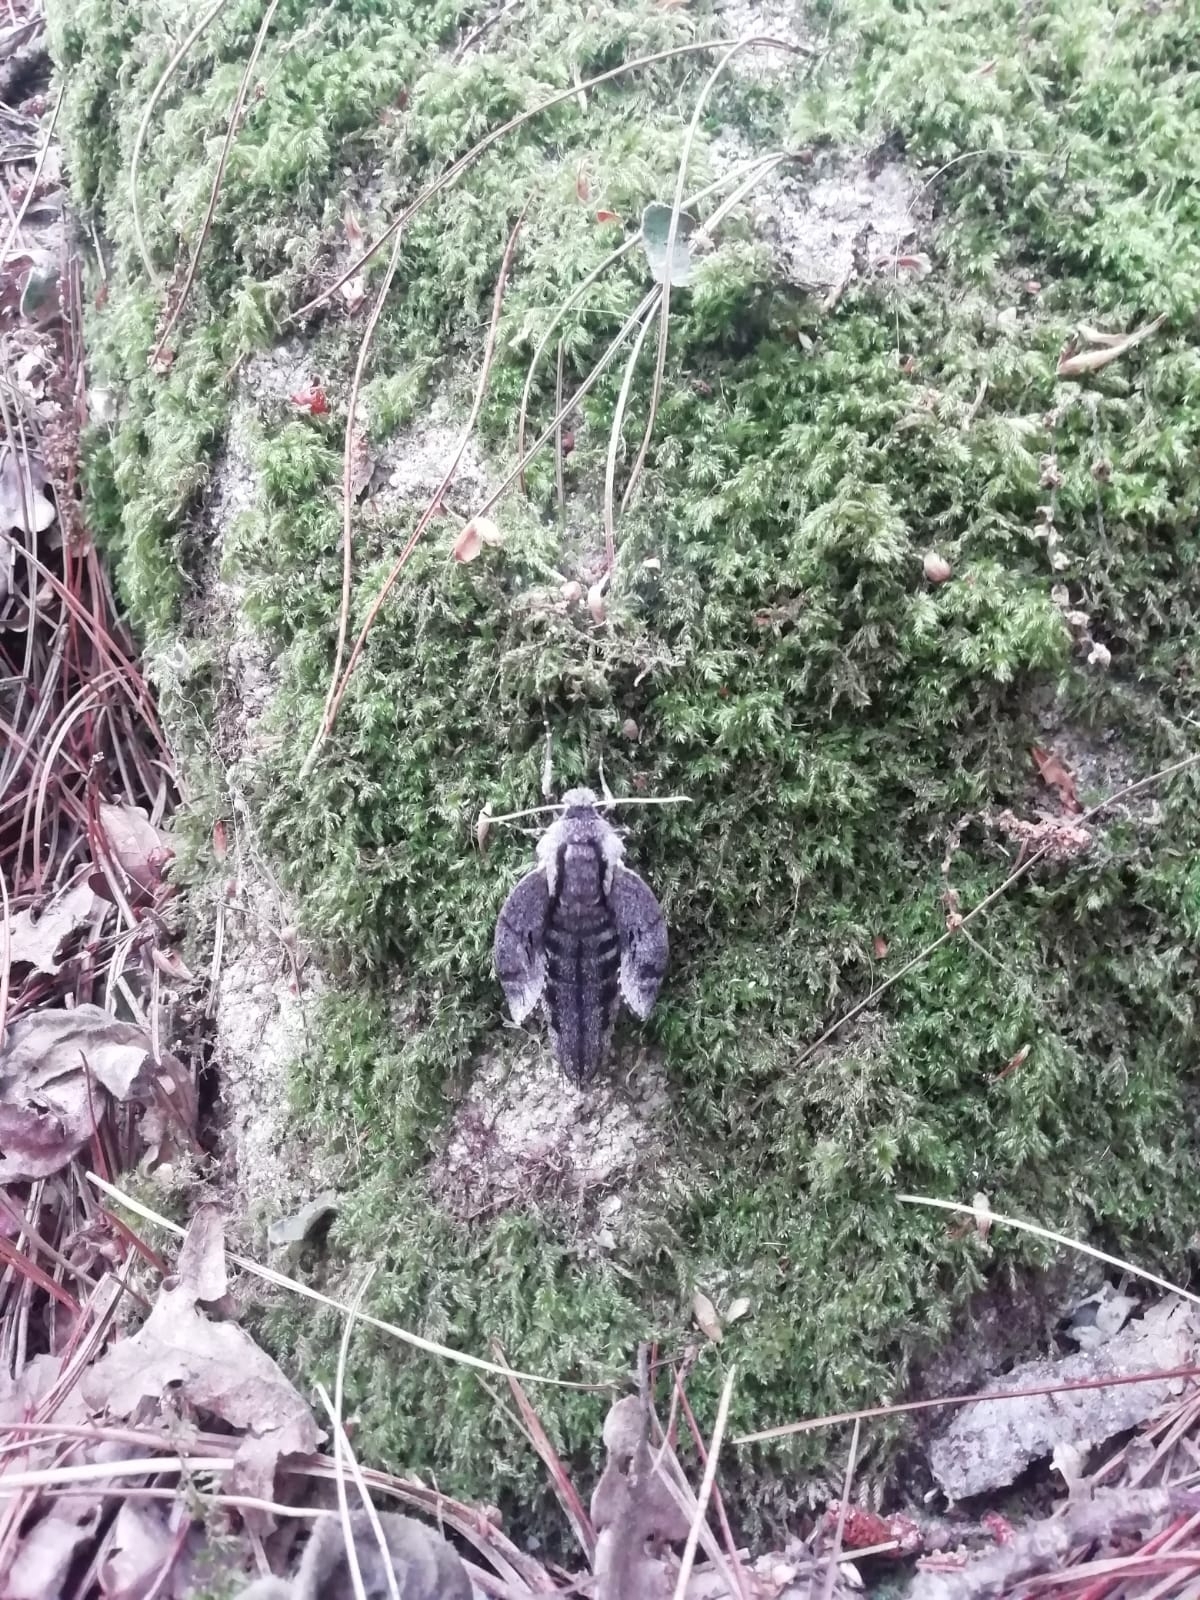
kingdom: Animalia
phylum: Arthropoda
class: Insecta
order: Lepidoptera
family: Sphingidae
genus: Sphinx
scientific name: Sphinx maurorum
